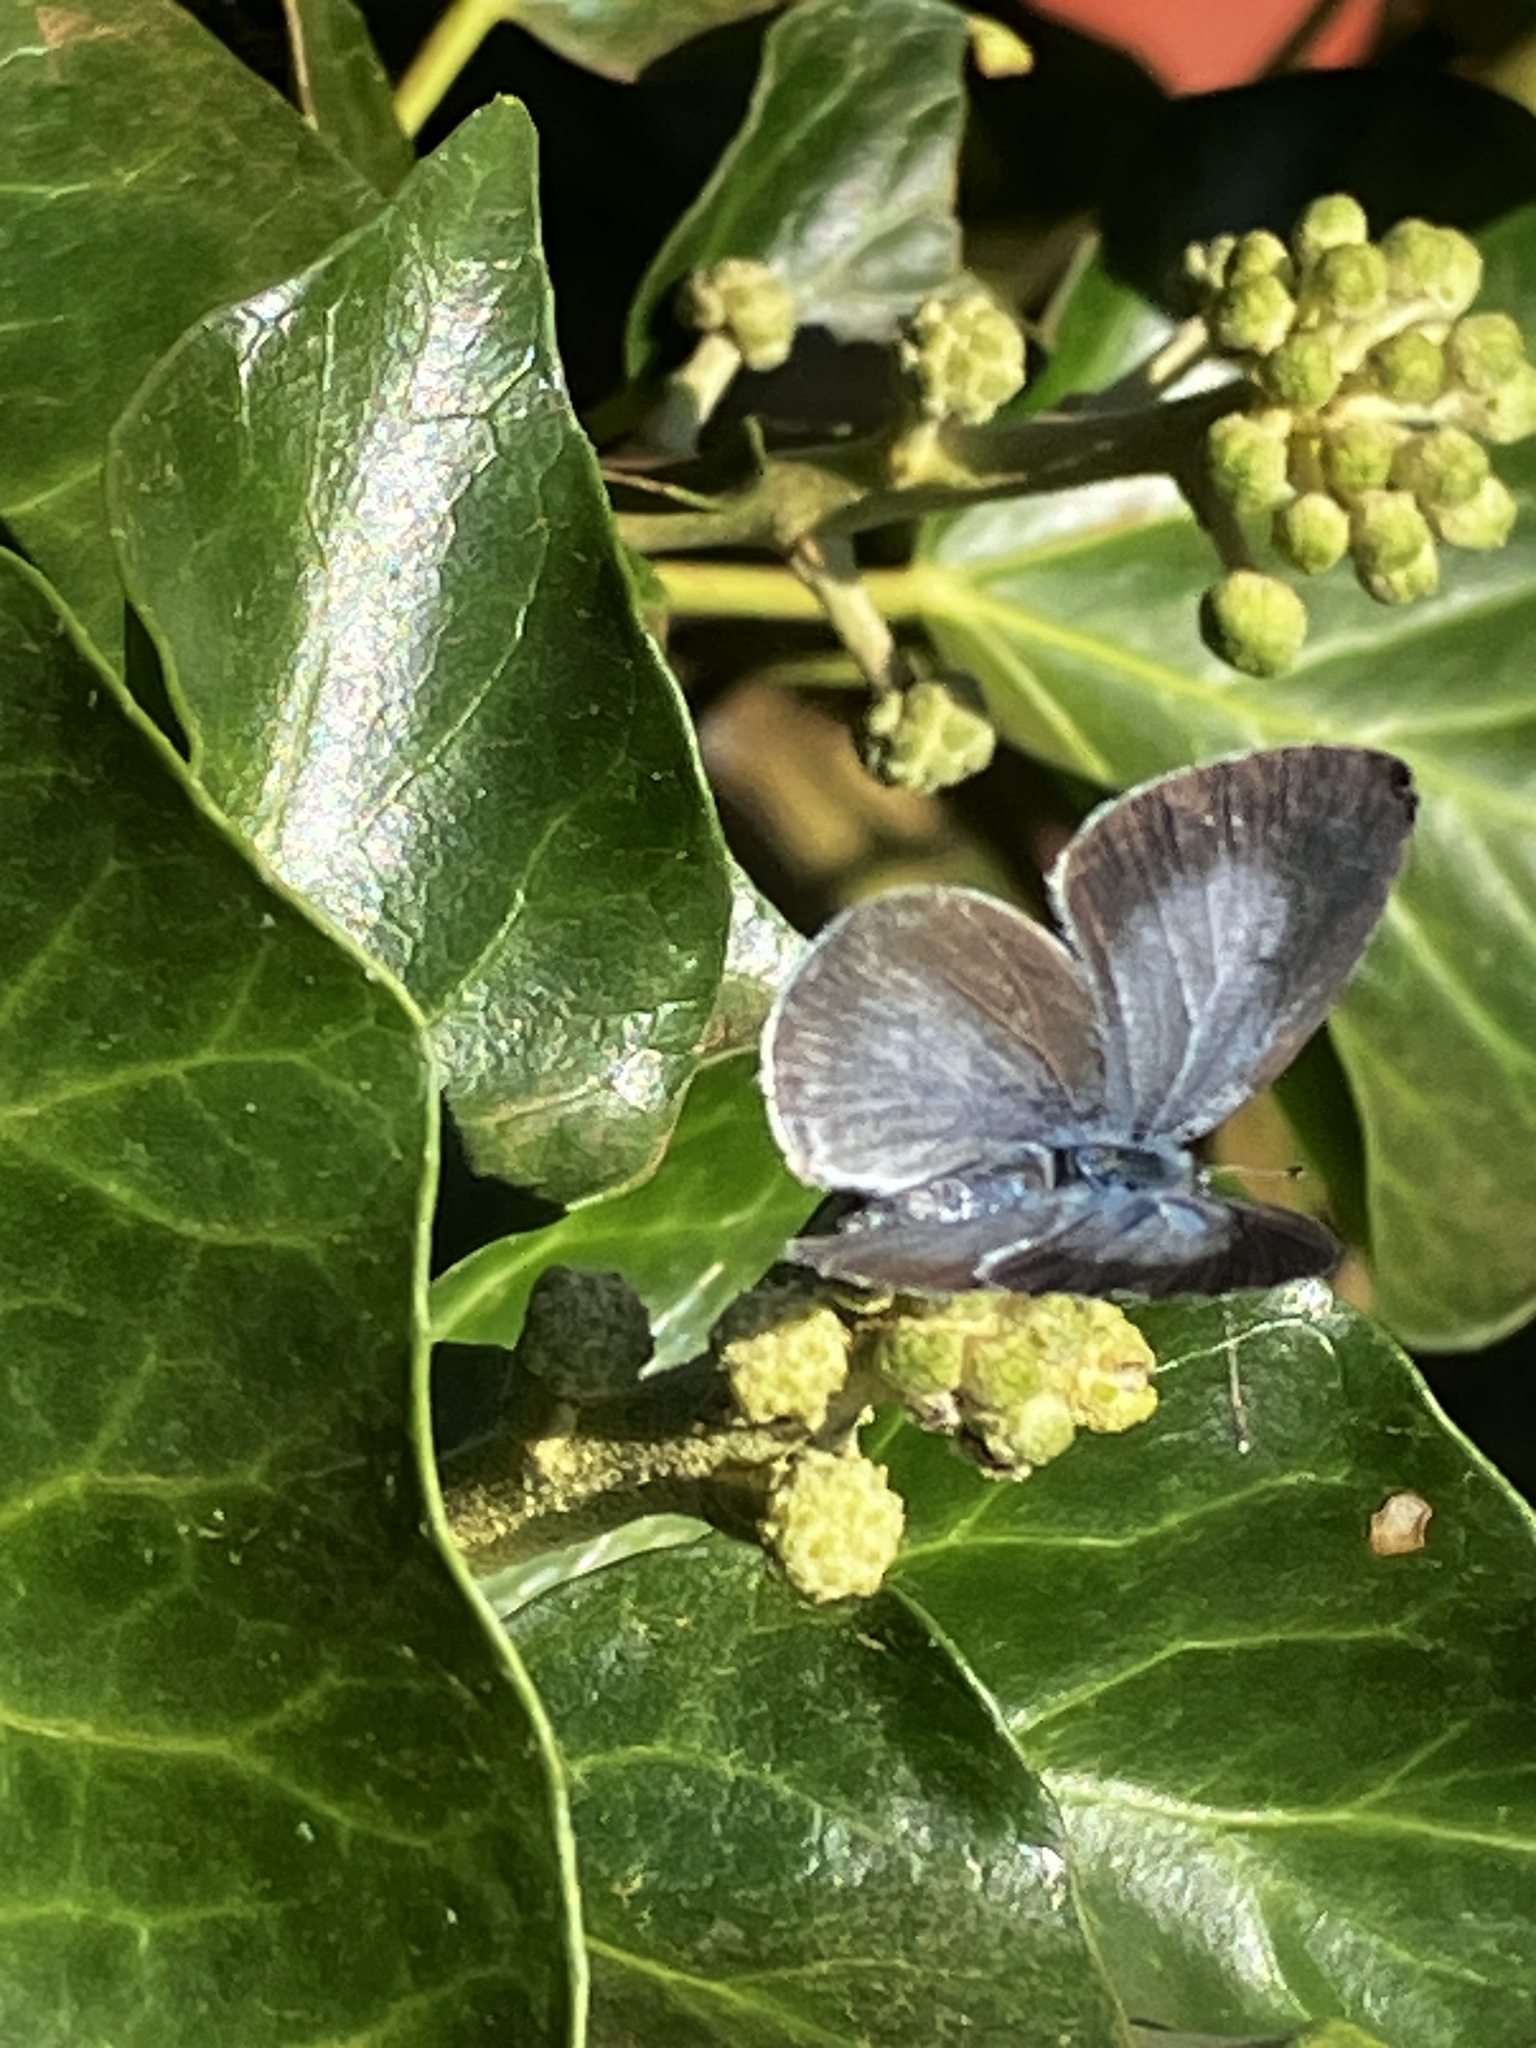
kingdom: Animalia
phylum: Arthropoda
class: Insecta
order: Lepidoptera
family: Lycaenidae
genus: Celastrina
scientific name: Celastrina argiolus
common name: Holly blue
